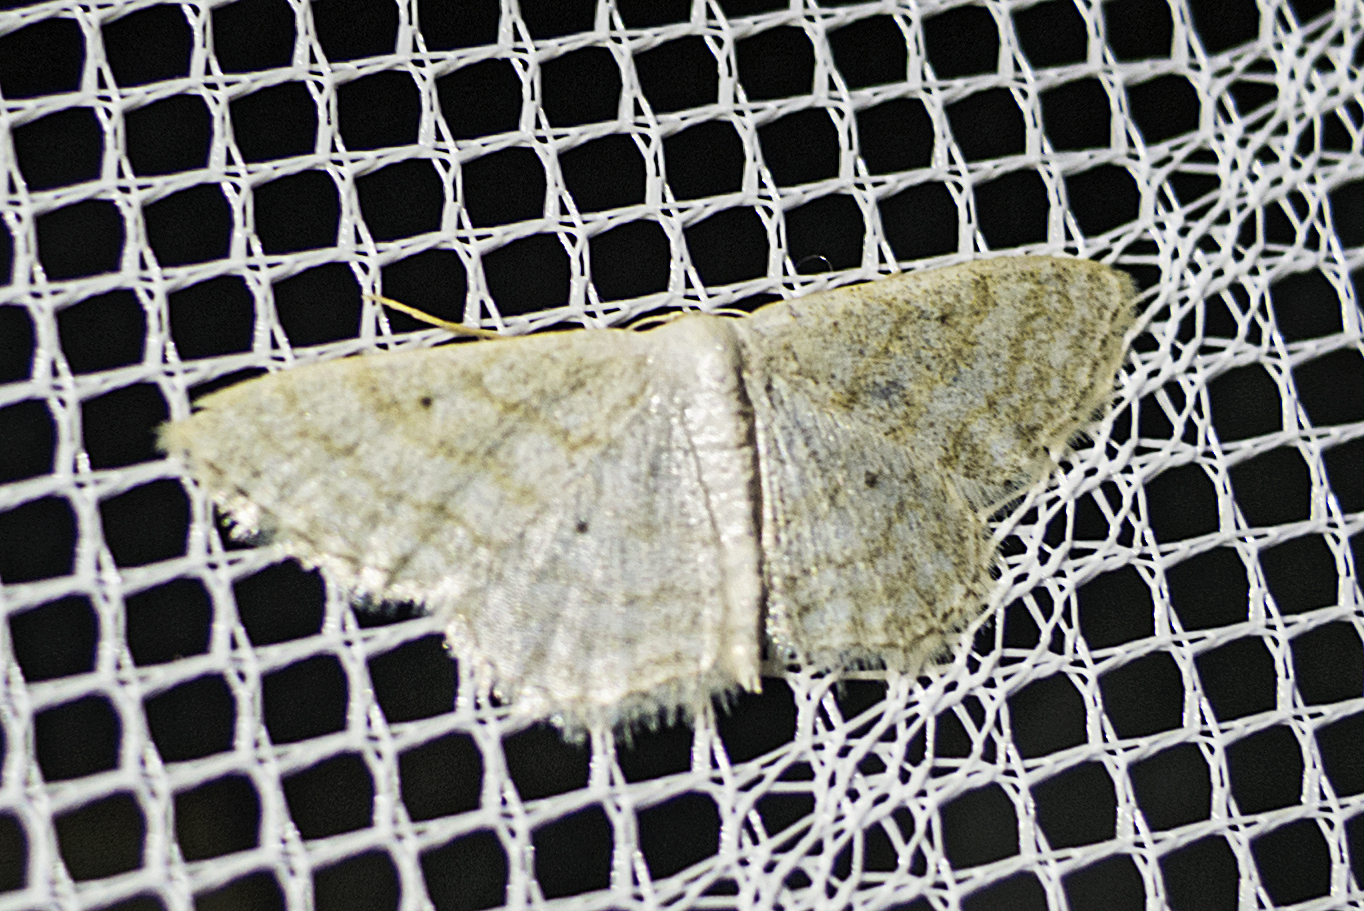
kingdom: Animalia
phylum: Arthropoda
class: Insecta
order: Lepidoptera
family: Geometridae
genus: Idaea
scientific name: Idaea subsericeata
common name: Satin wave
